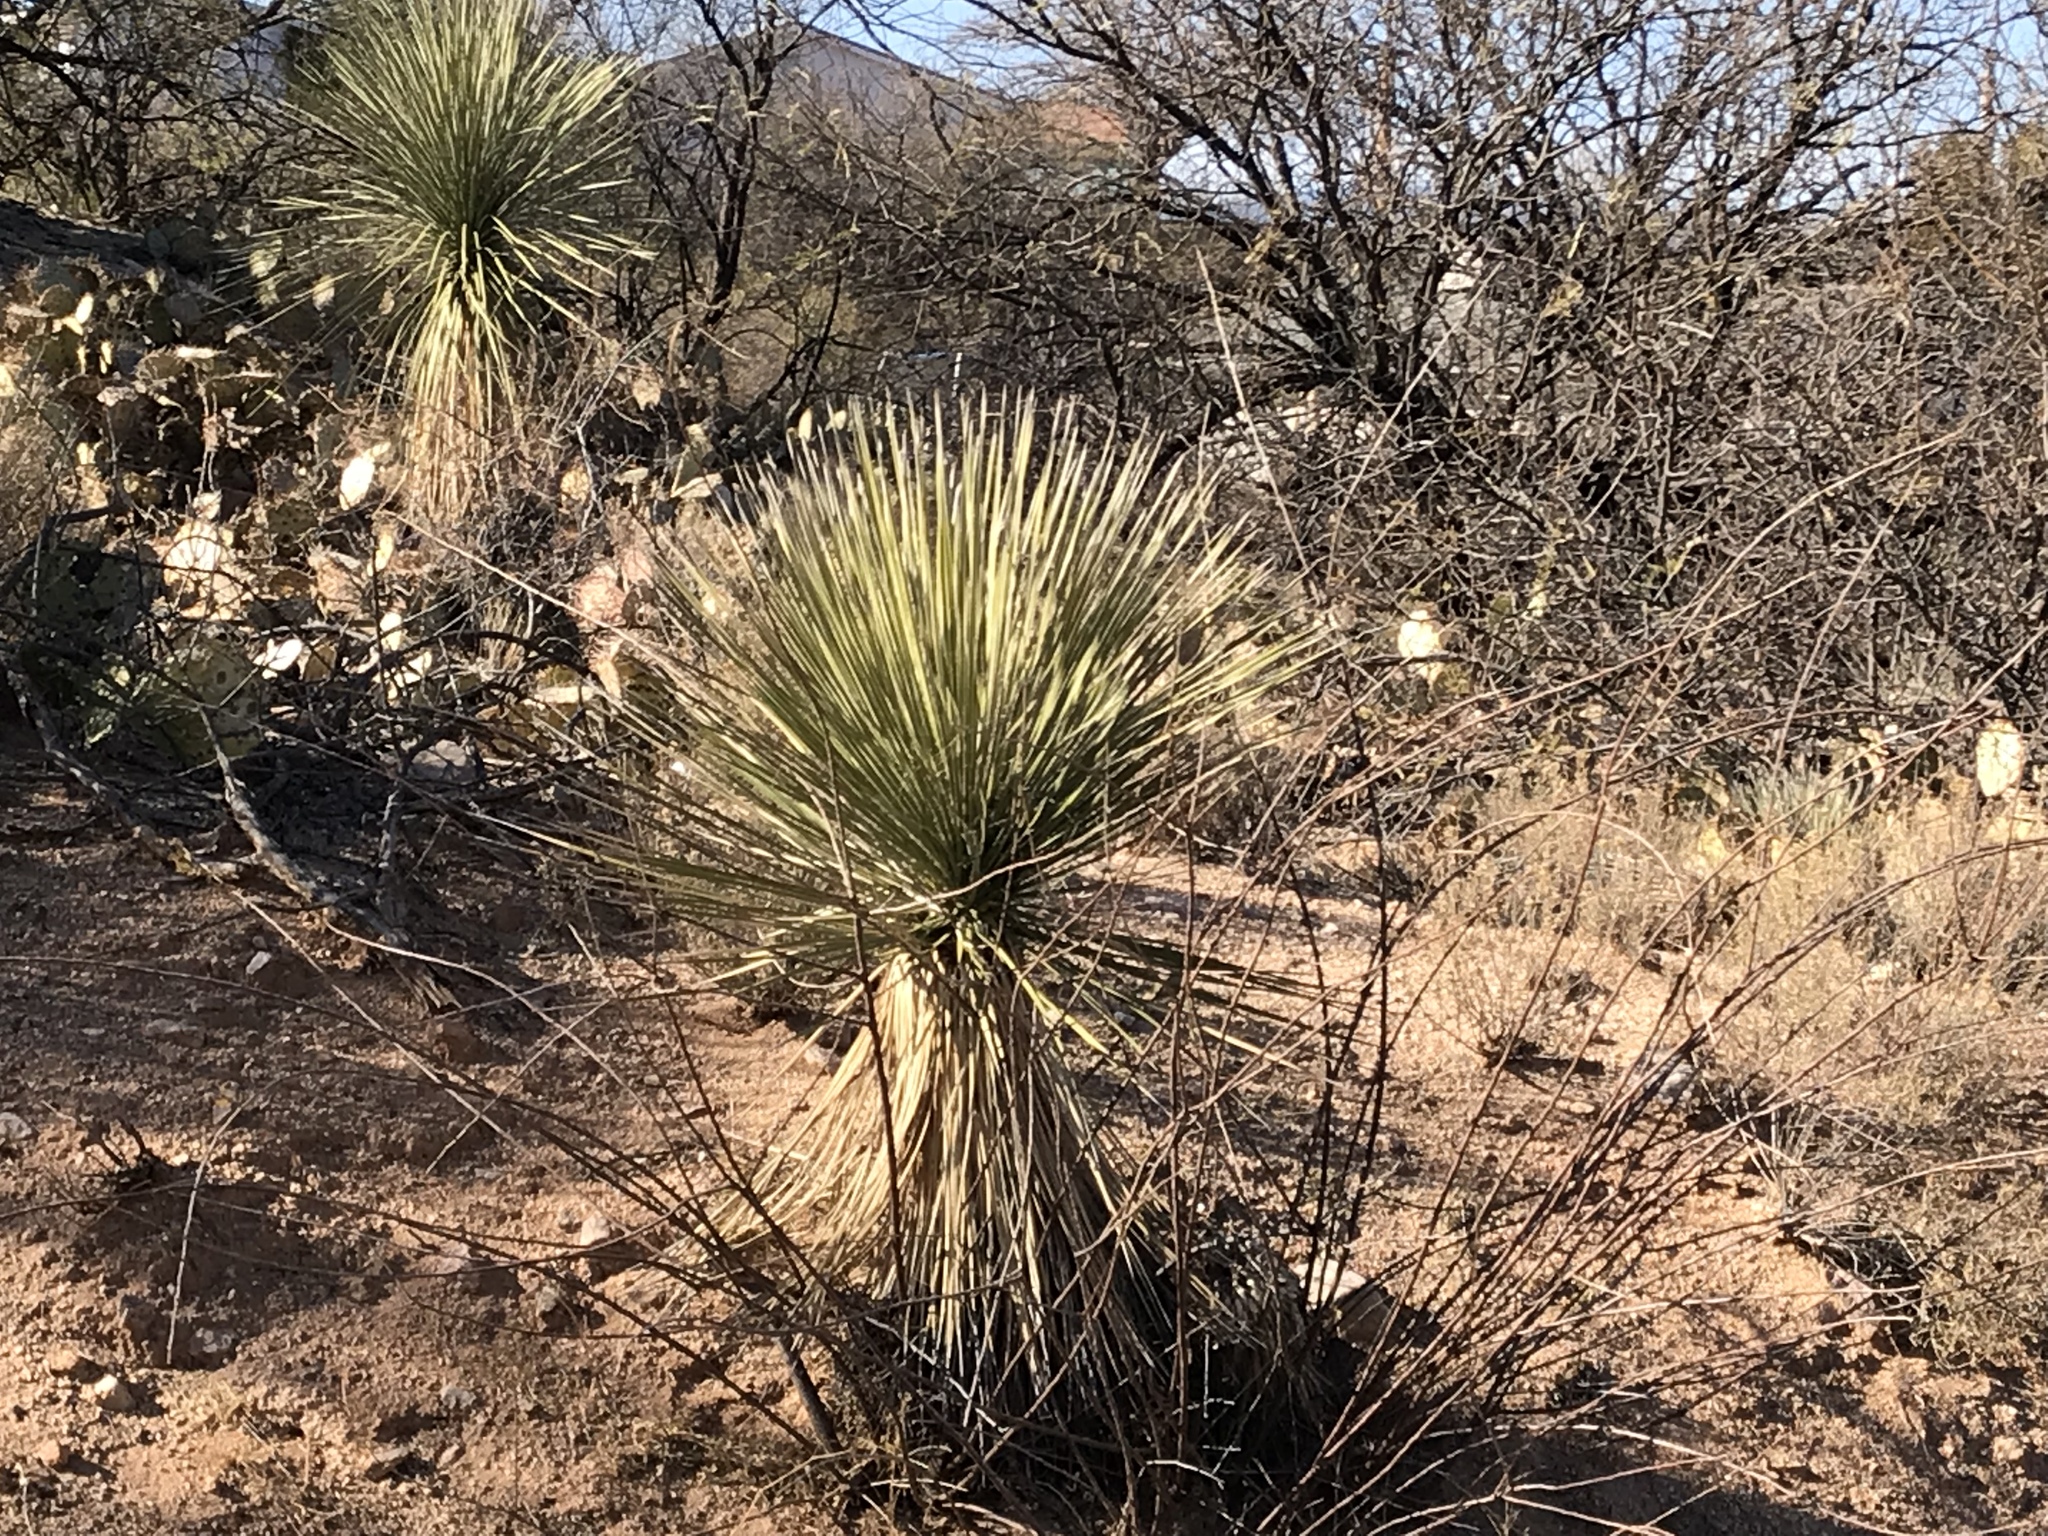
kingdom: Plantae
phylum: Tracheophyta
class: Liliopsida
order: Asparagales
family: Asparagaceae
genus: Yucca
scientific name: Yucca elata
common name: Palmella
